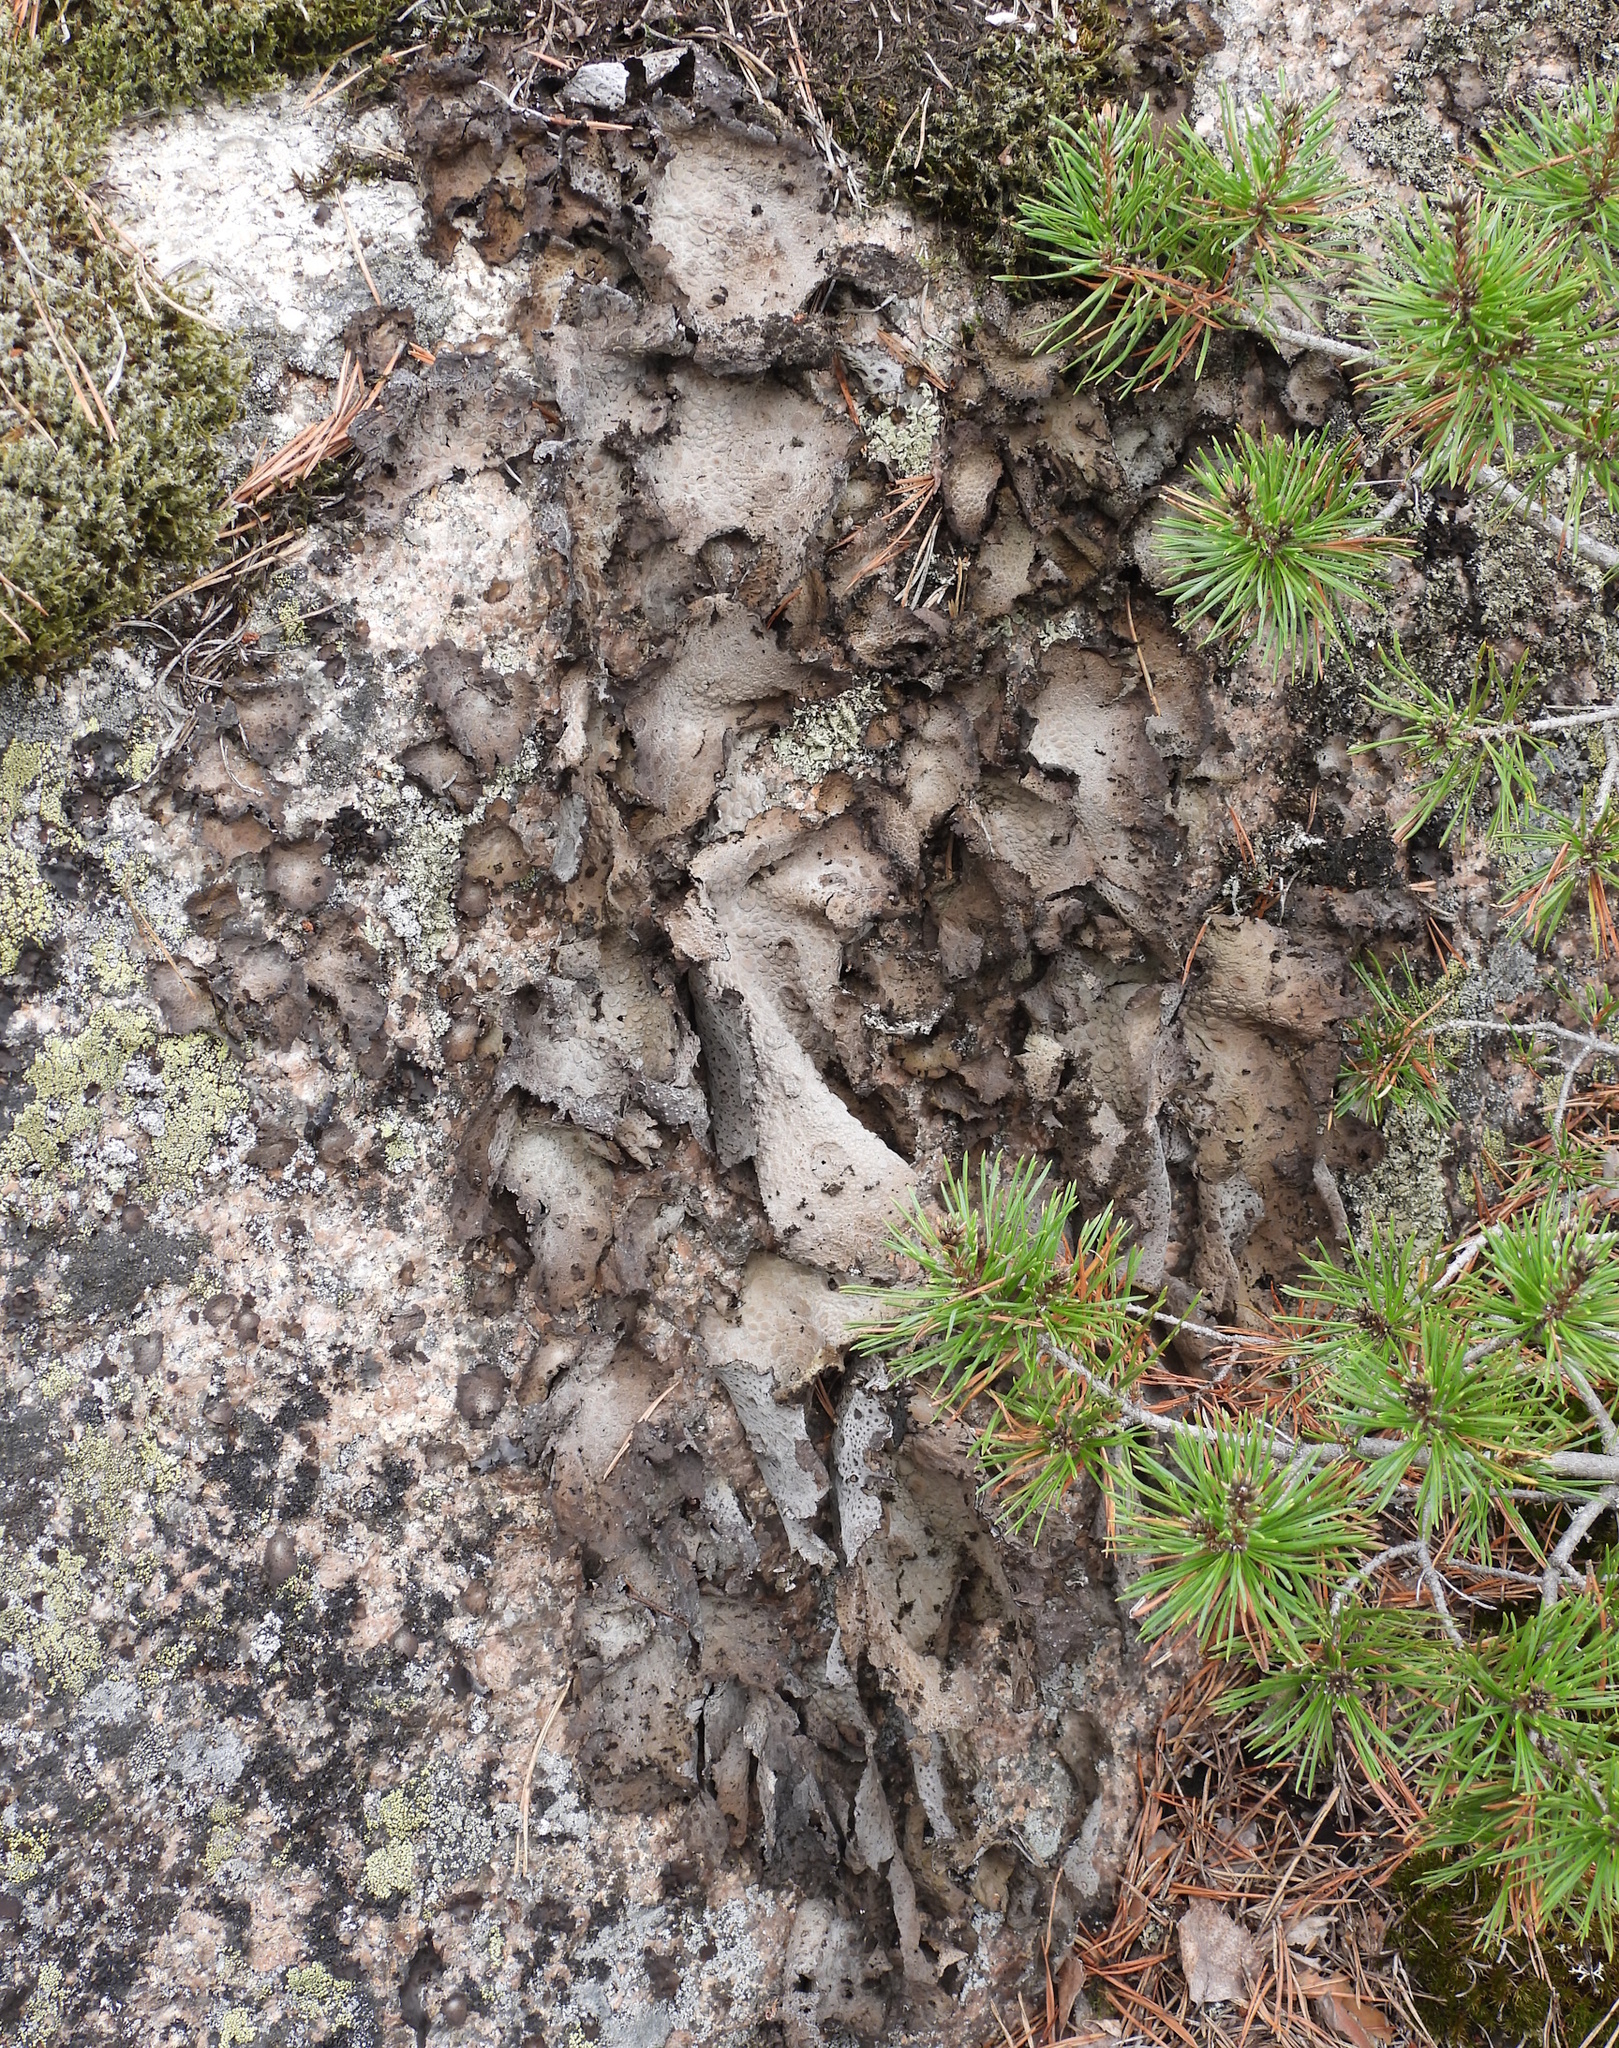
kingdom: Fungi
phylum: Ascomycota
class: Lecanoromycetes
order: Umbilicariales
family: Umbilicariaceae
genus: Lasallia
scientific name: Lasallia pustulata
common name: Blistered toadskin lichen
